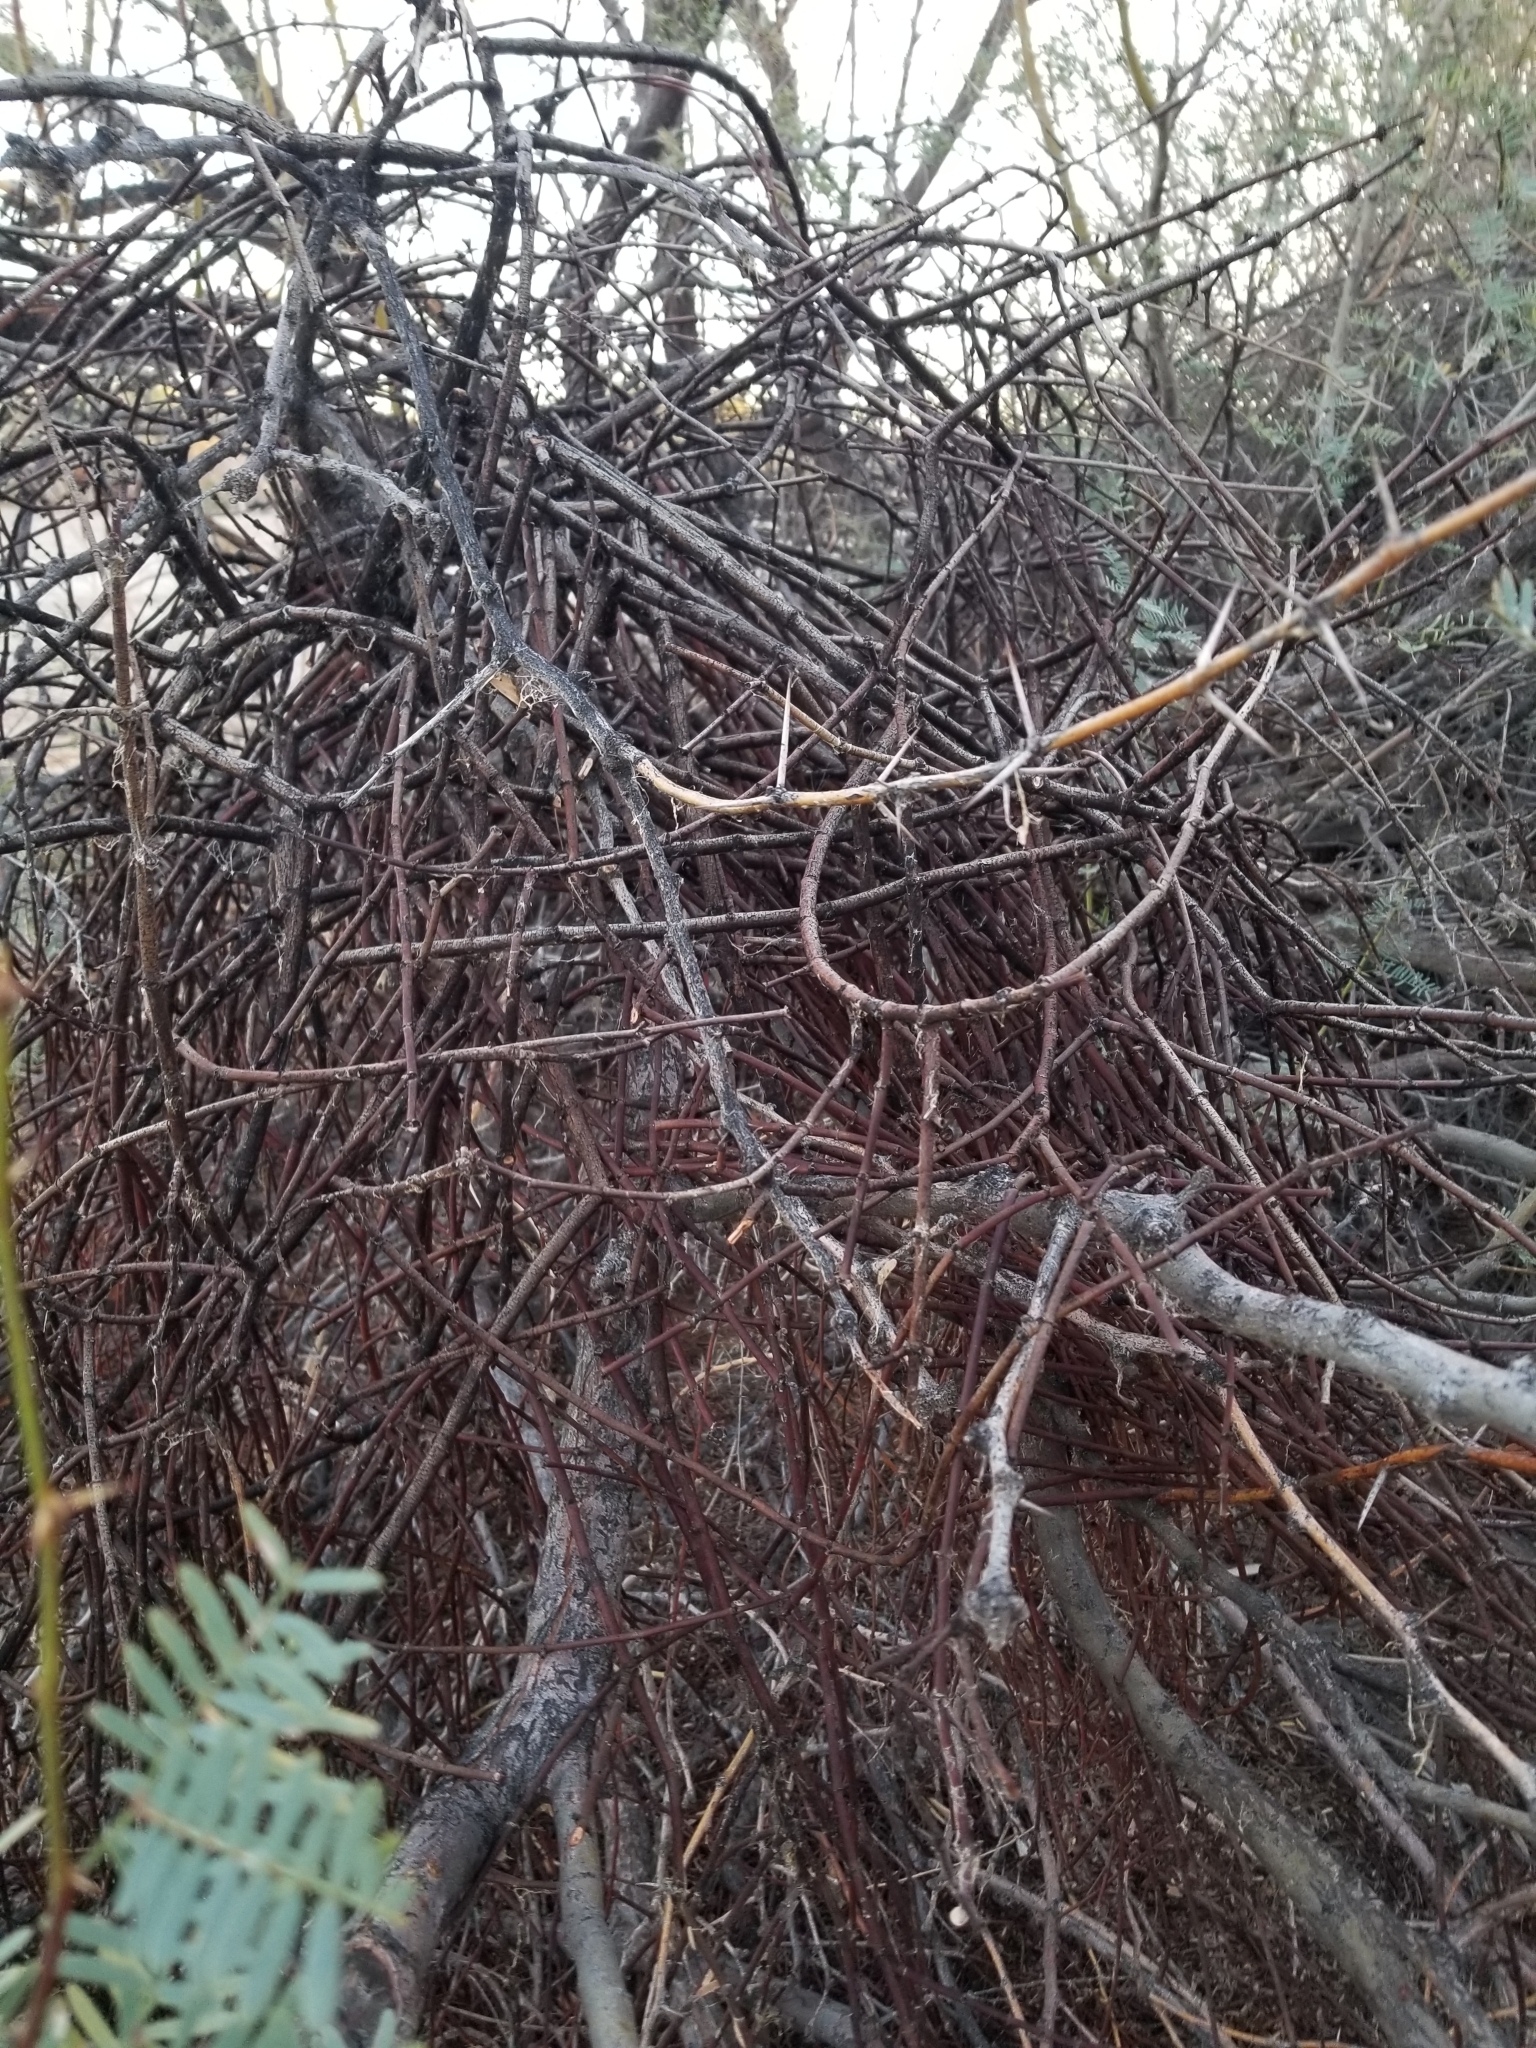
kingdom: Plantae
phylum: Tracheophyta
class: Magnoliopsida
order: Santalales
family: Viscaceae
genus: Phoradendron
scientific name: Phoradendron californicum
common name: Acacia mistletoe
